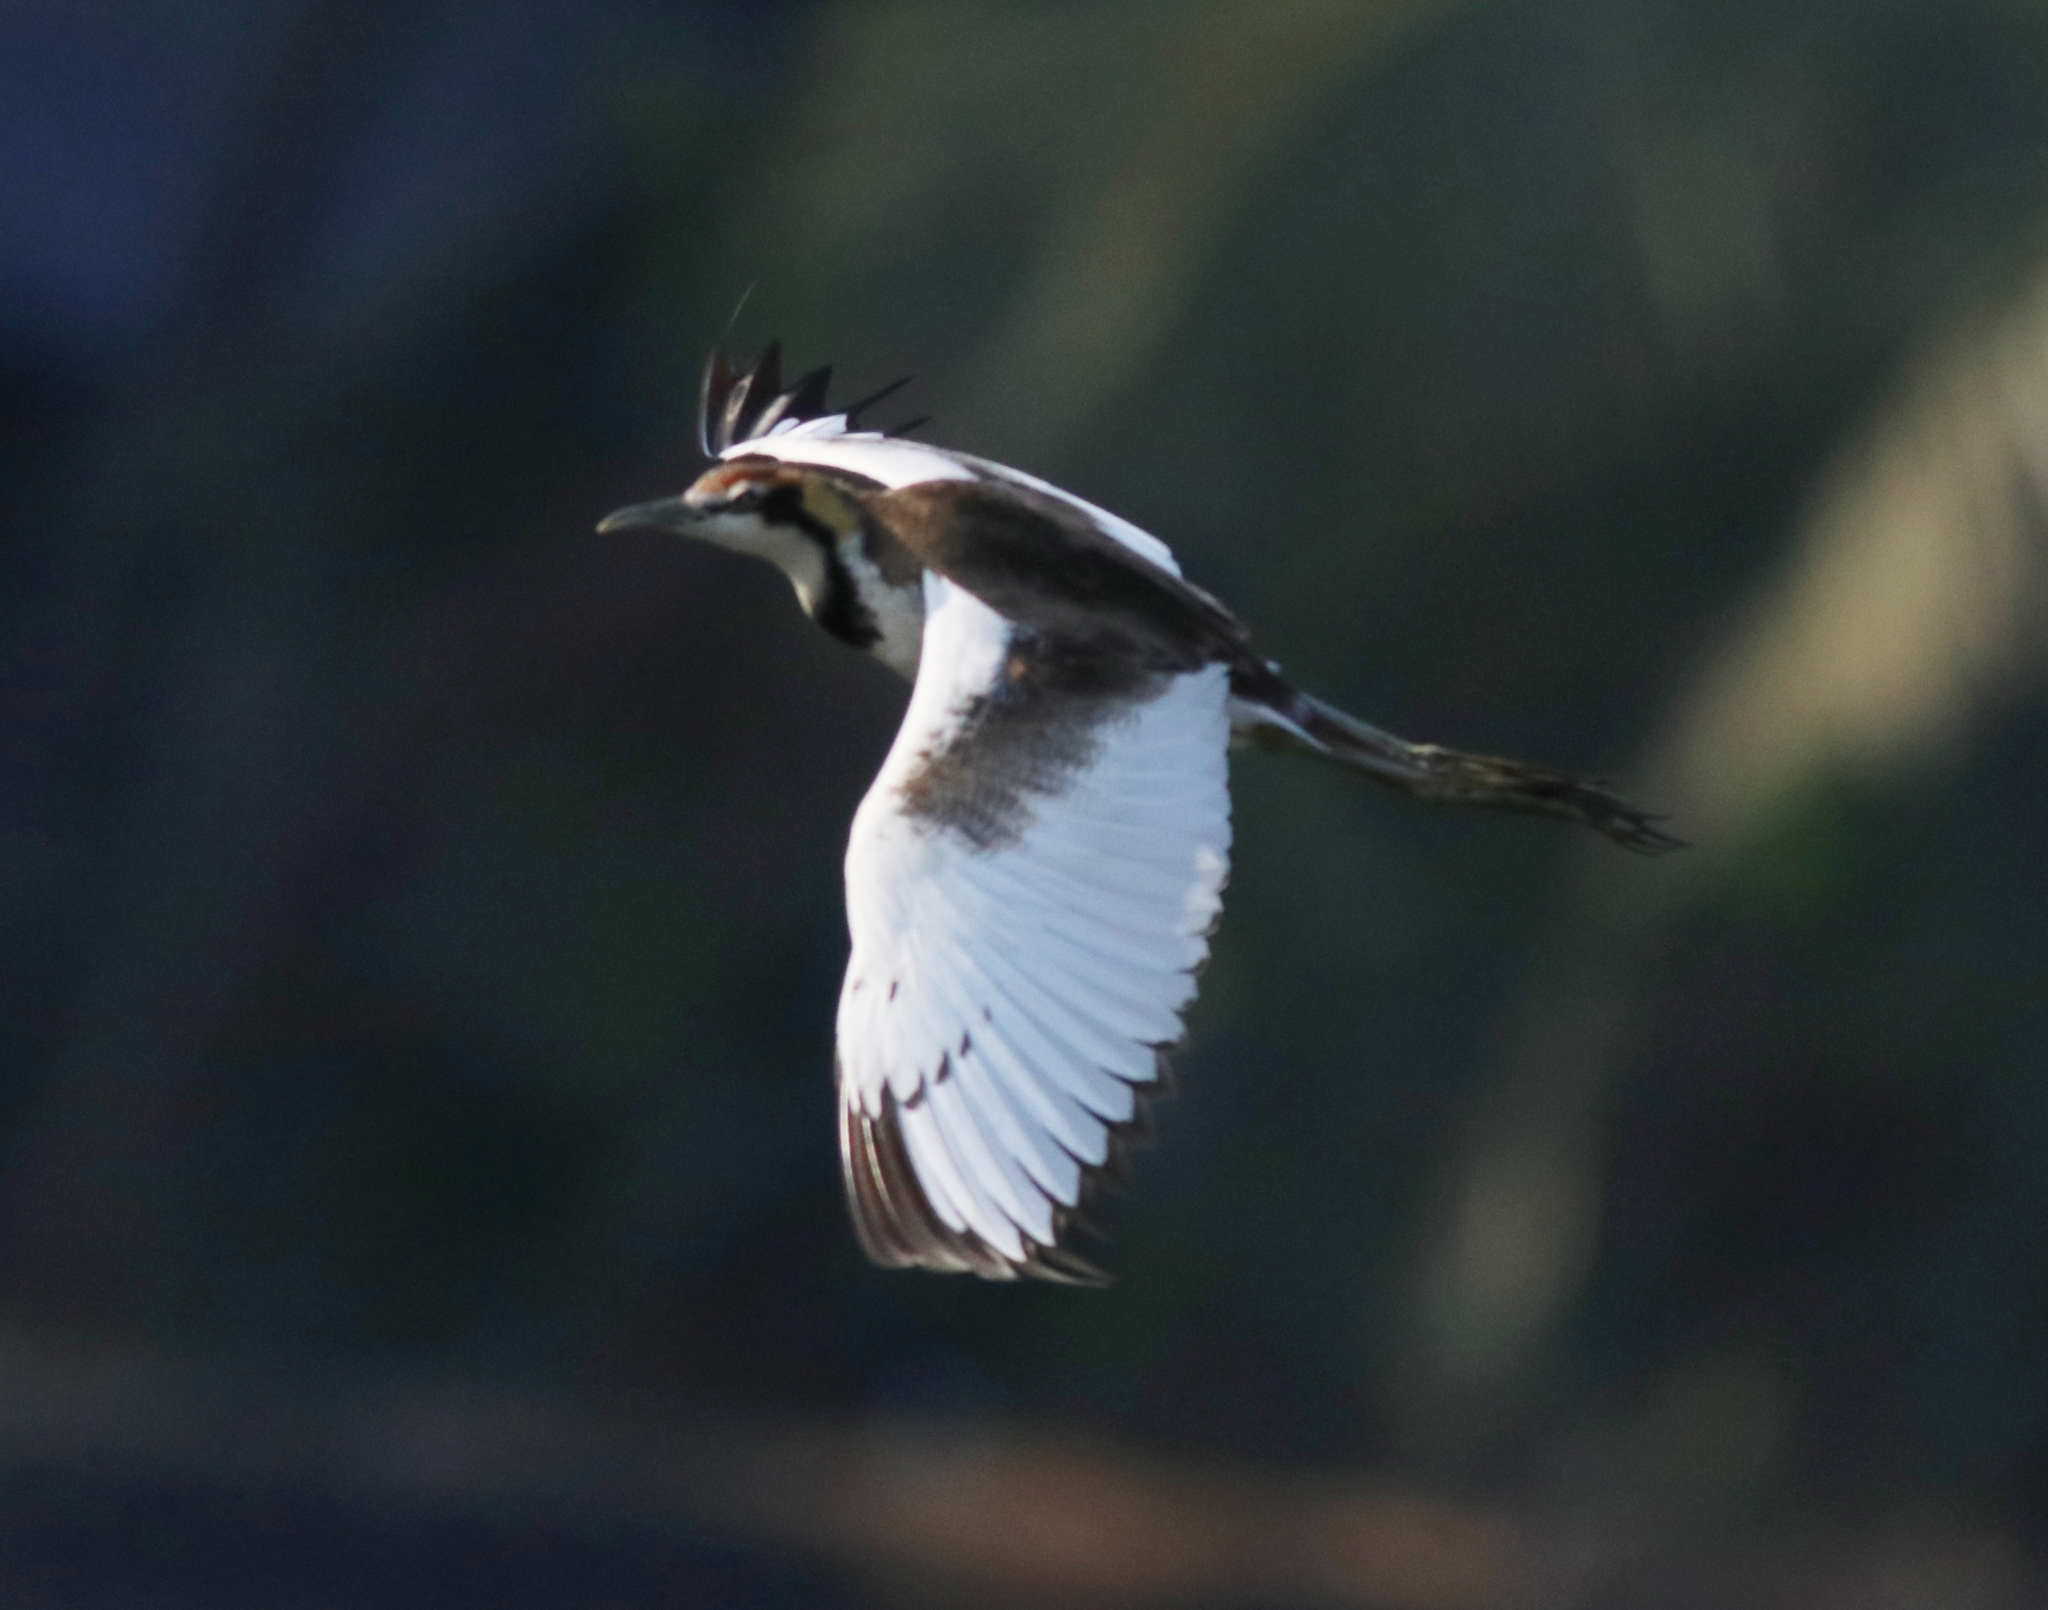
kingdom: Animalia
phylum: Chordata
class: Aves
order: Charadriiformes
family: Jacanidae
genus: Hydrophasianus
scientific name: Hydrophasianus chirurgus
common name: Pheasant-tailed jacana
